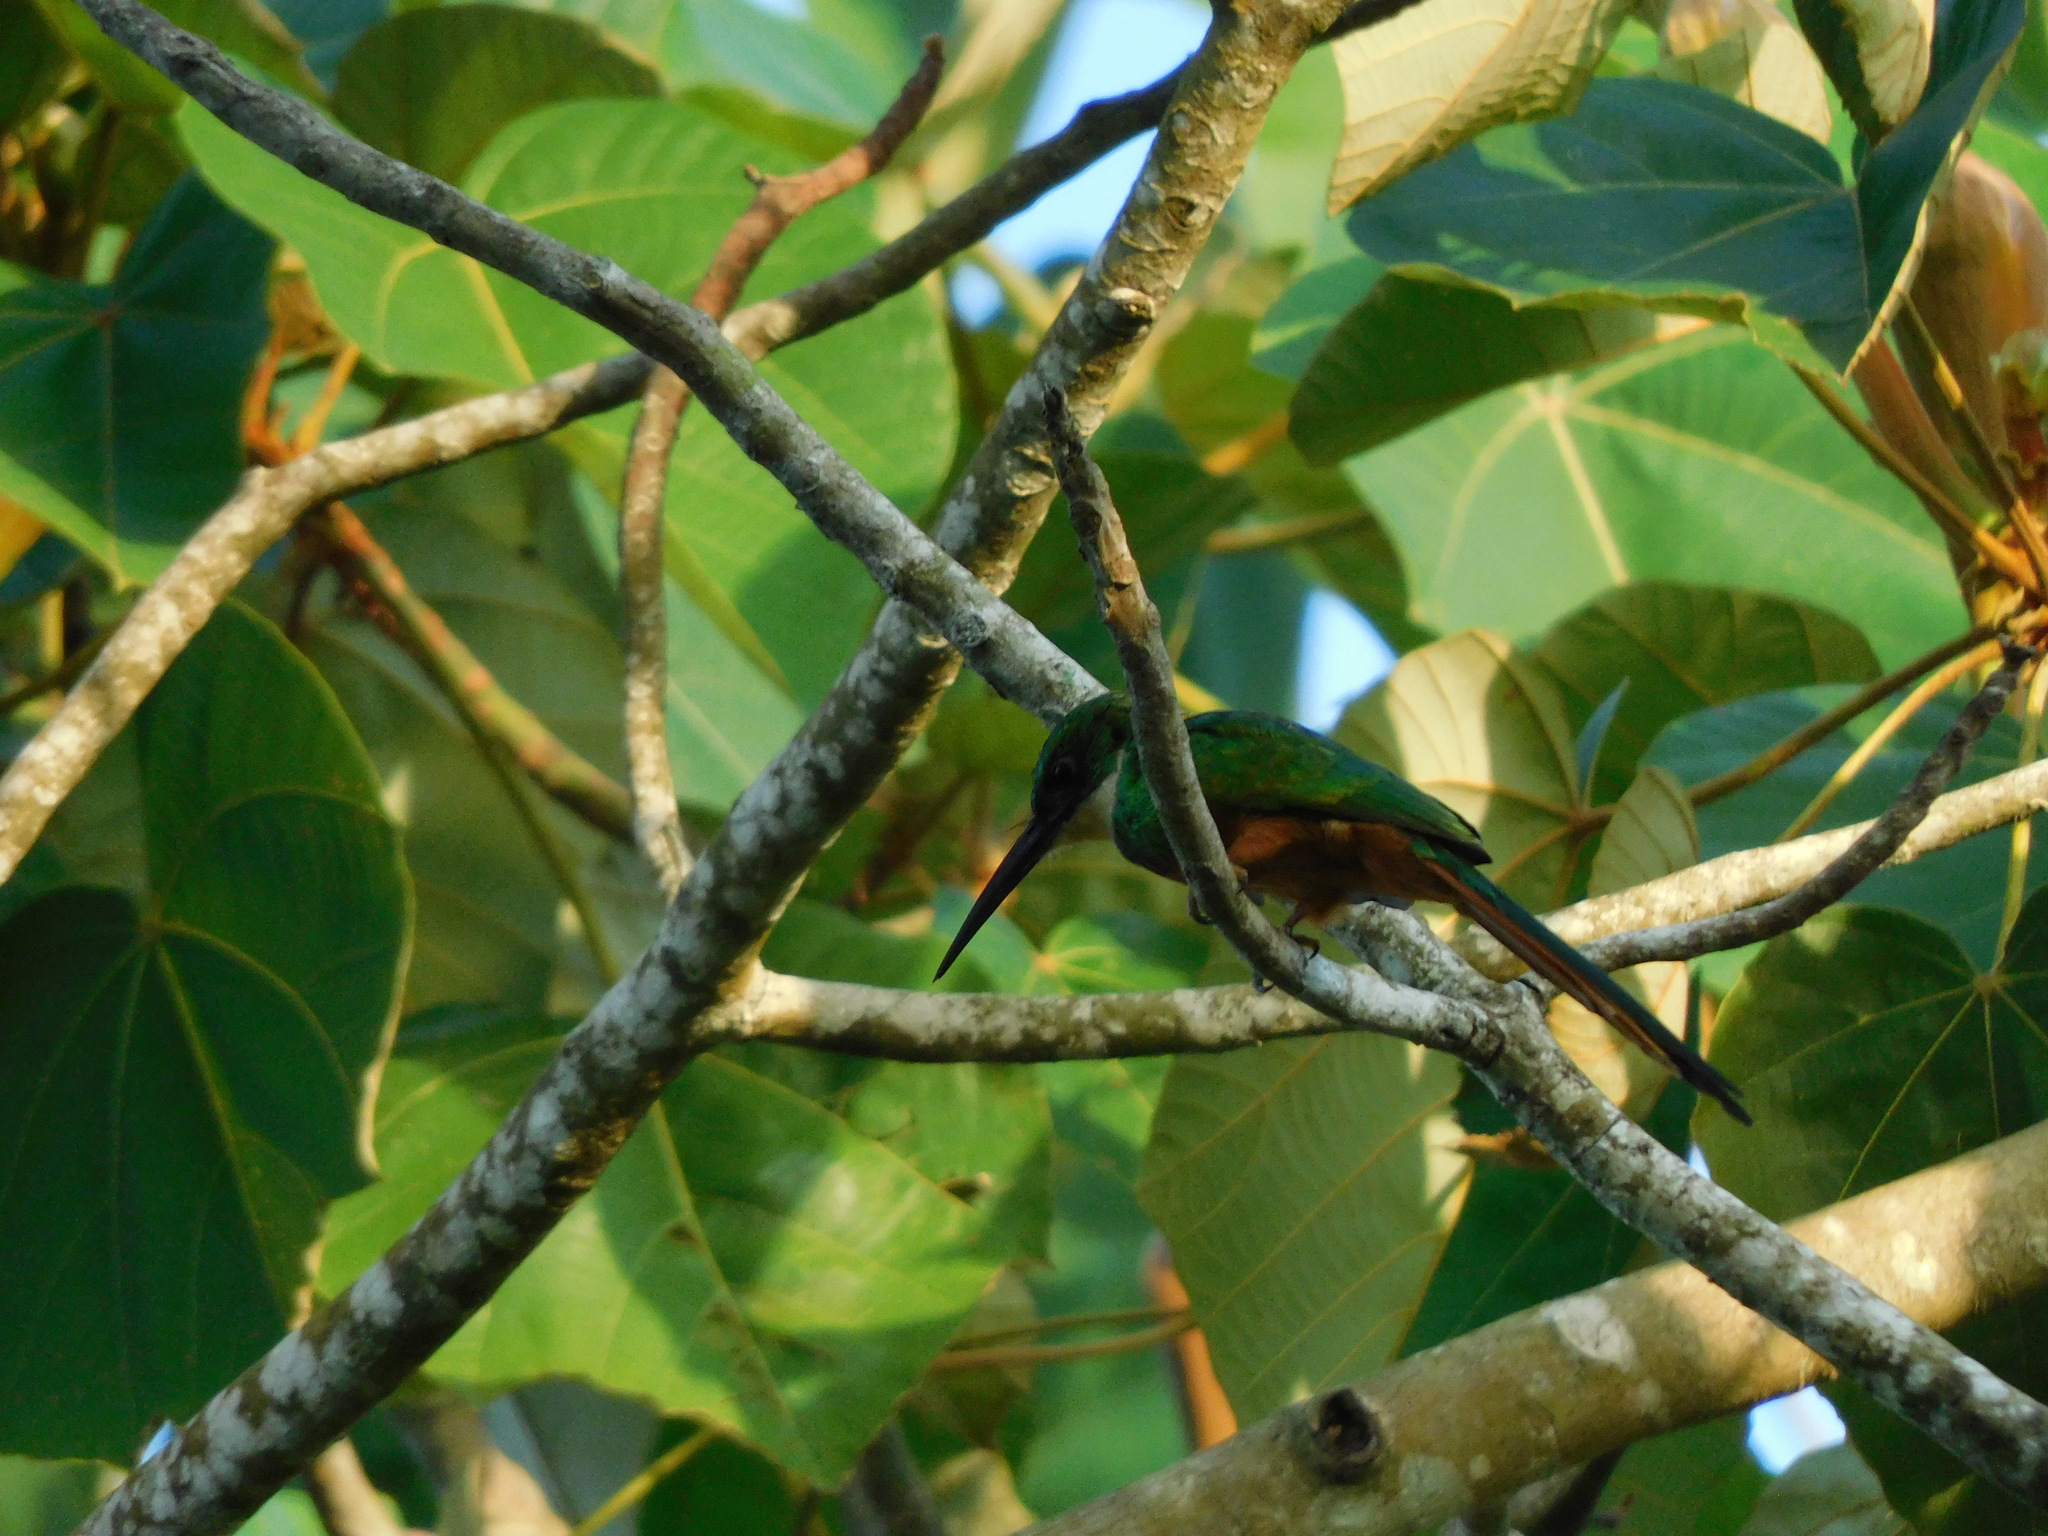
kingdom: Animalia
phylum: Chordata
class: Aves
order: Piciformes
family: Galbulidae
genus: Galbula
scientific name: Galbula ruficauda
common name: Rufous-tailed jacamar
